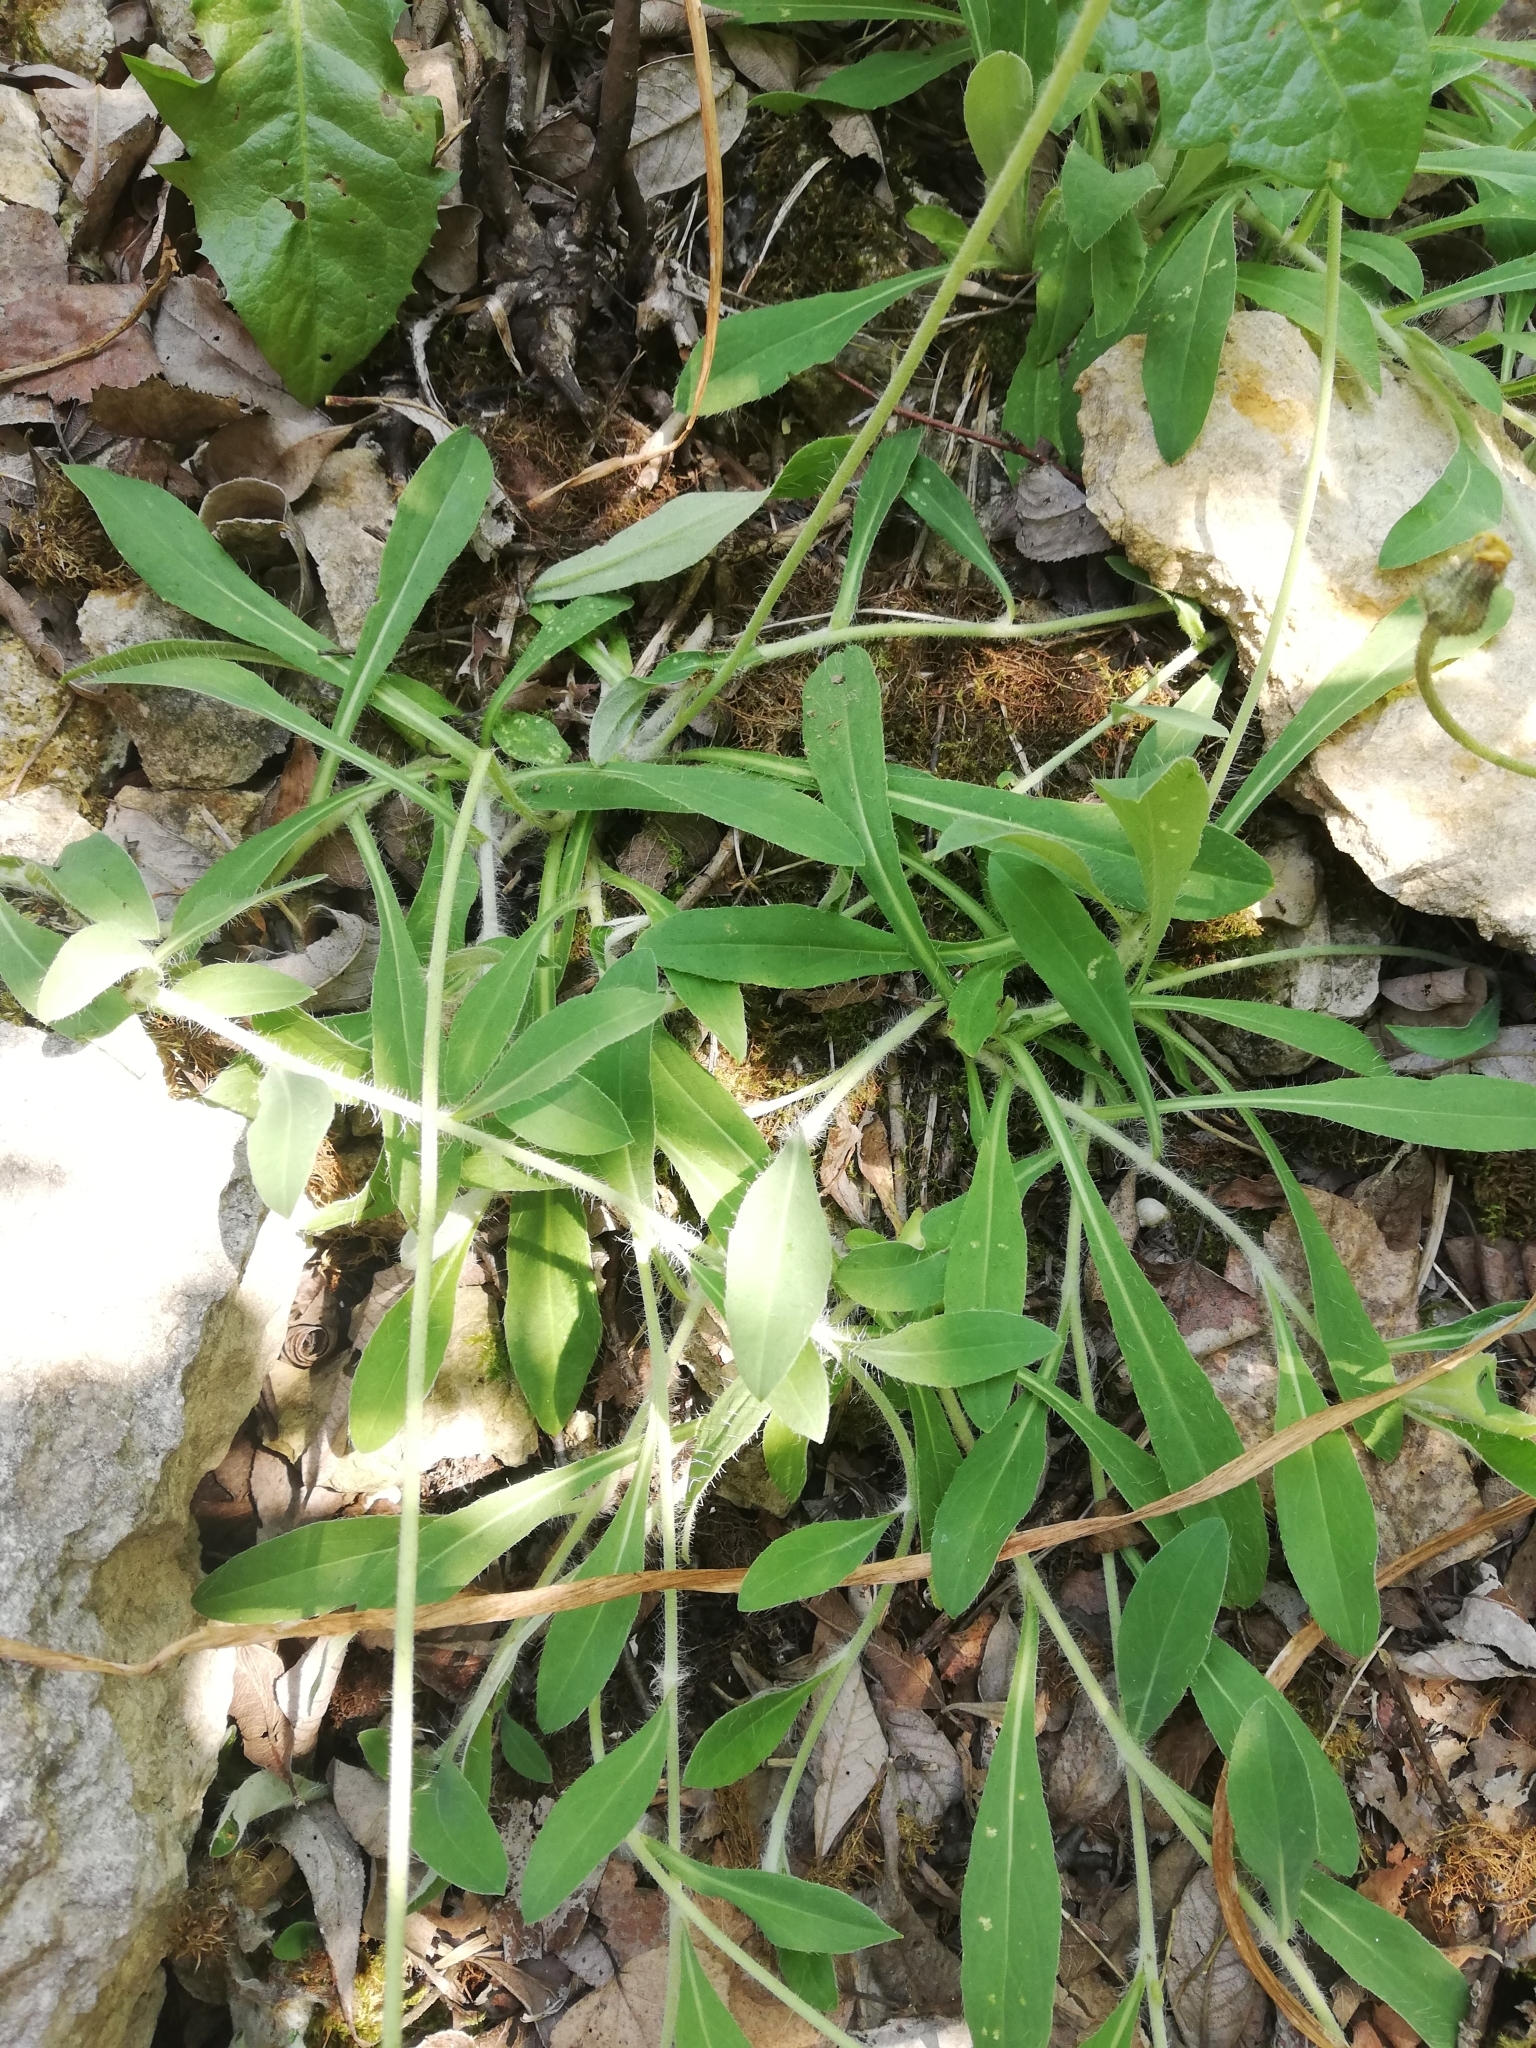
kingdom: Plantae
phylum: Tracheophyta
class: Magnoliopsida
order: Asterales
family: Asteraceae
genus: Pilosella
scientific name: Pilosella officinarum
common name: Mouse-ear hawkweed
